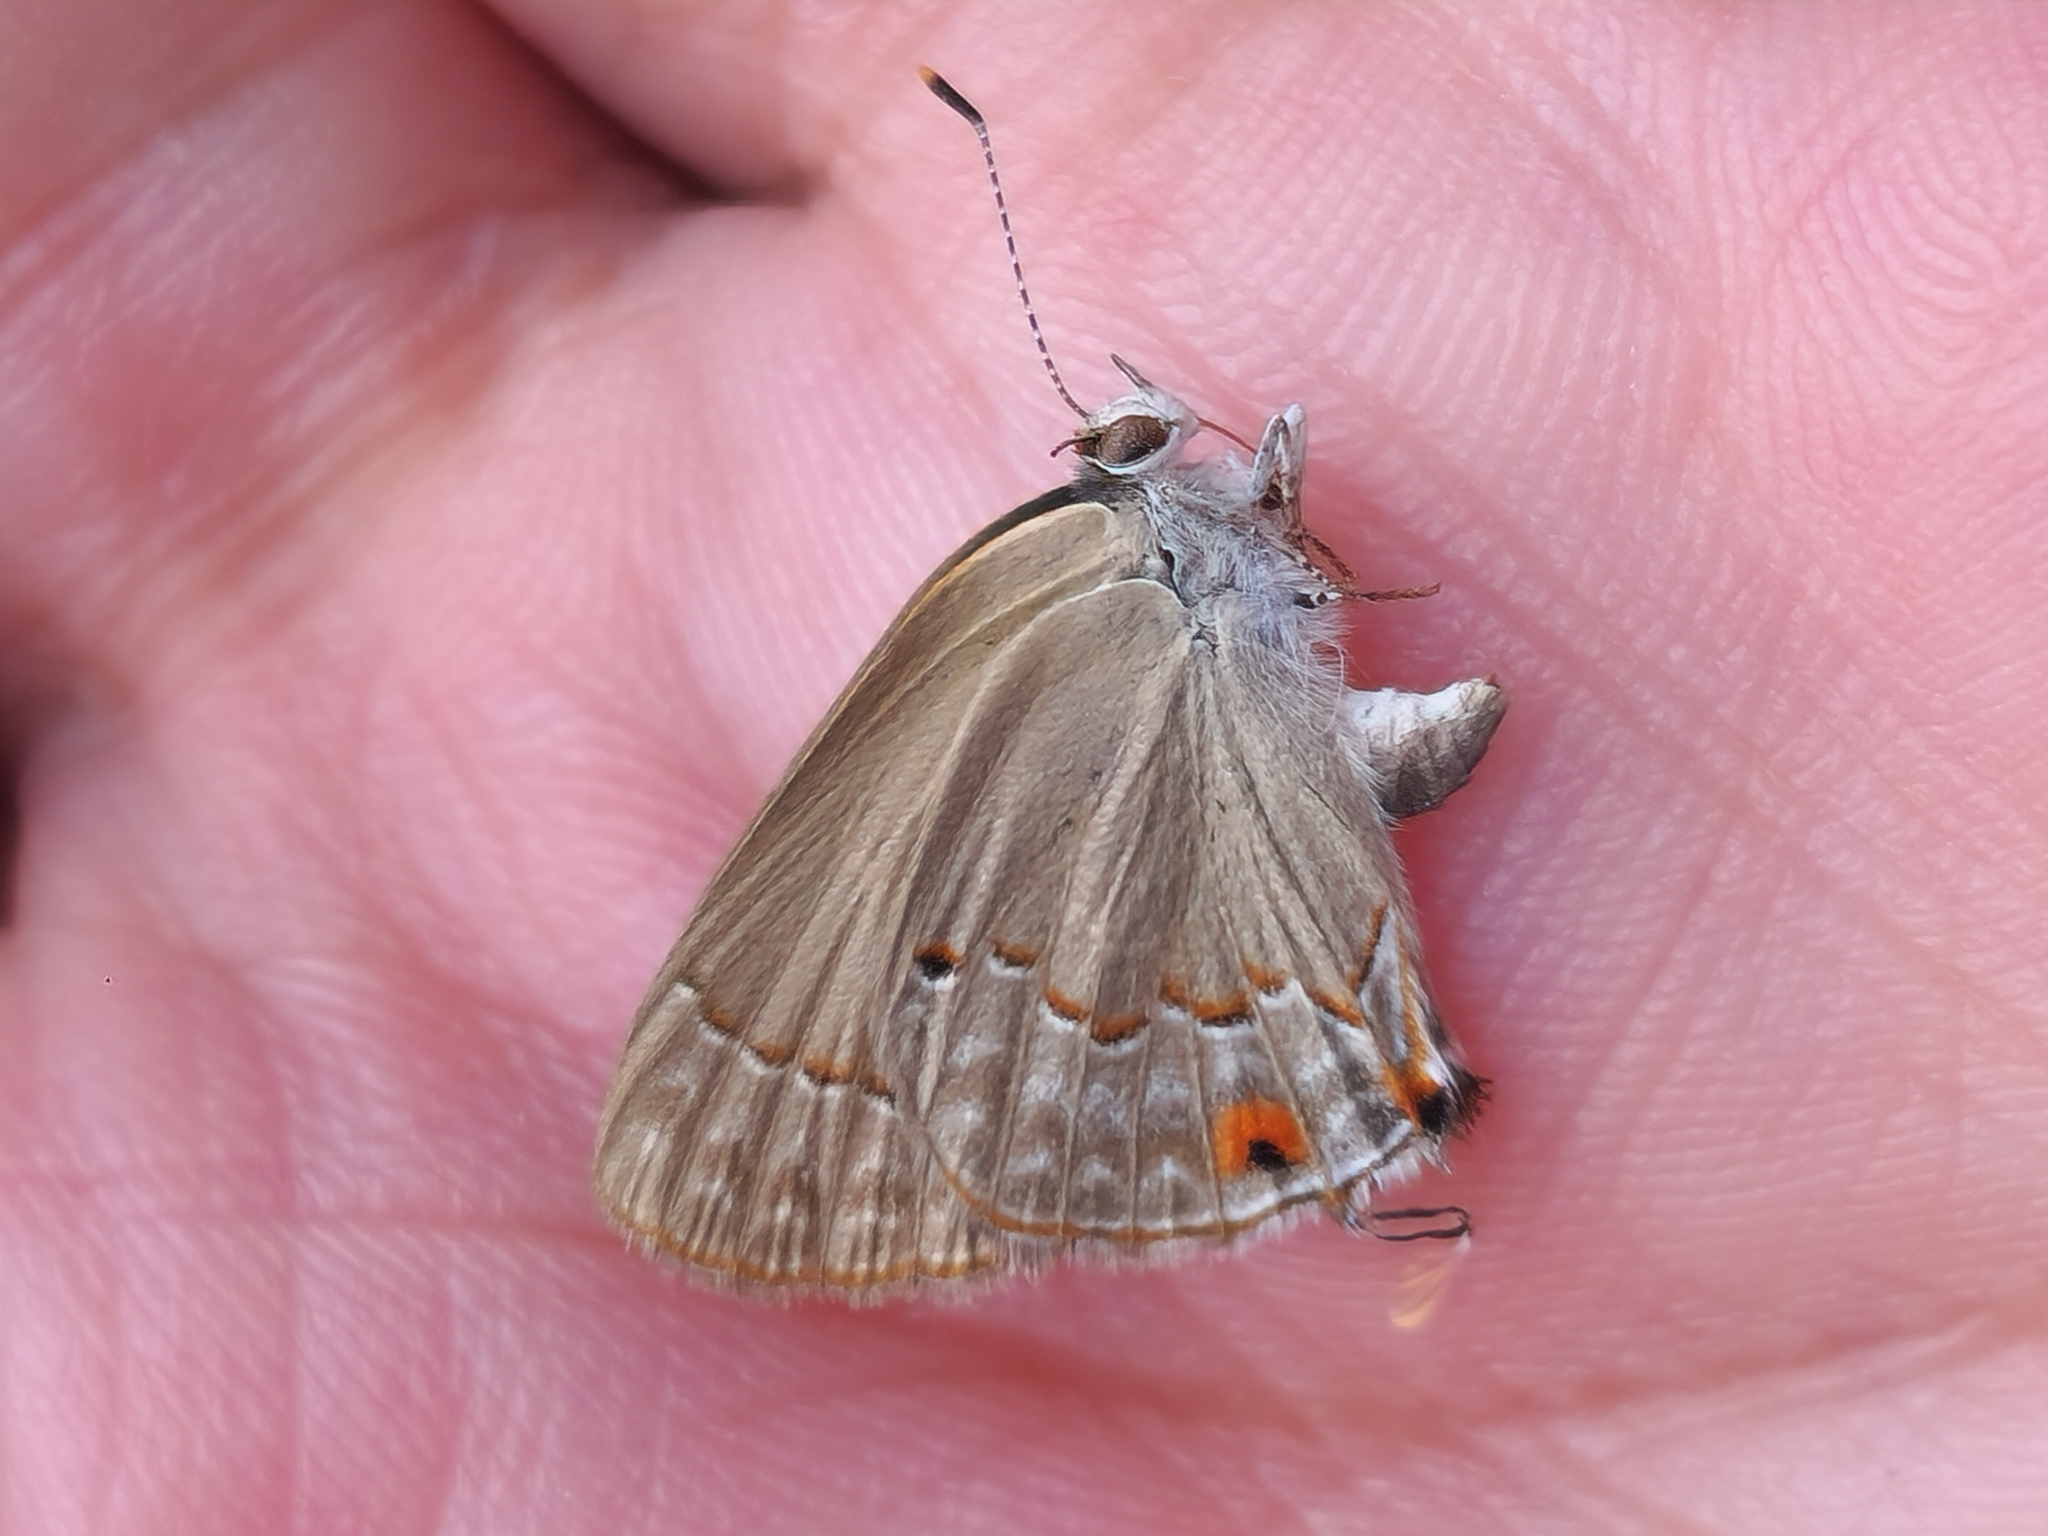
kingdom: Animalia
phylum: Arthropoda
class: Insecta
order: Lepidoptera
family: Lycaenidae
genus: Thecla
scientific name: Thecla rufofusca
